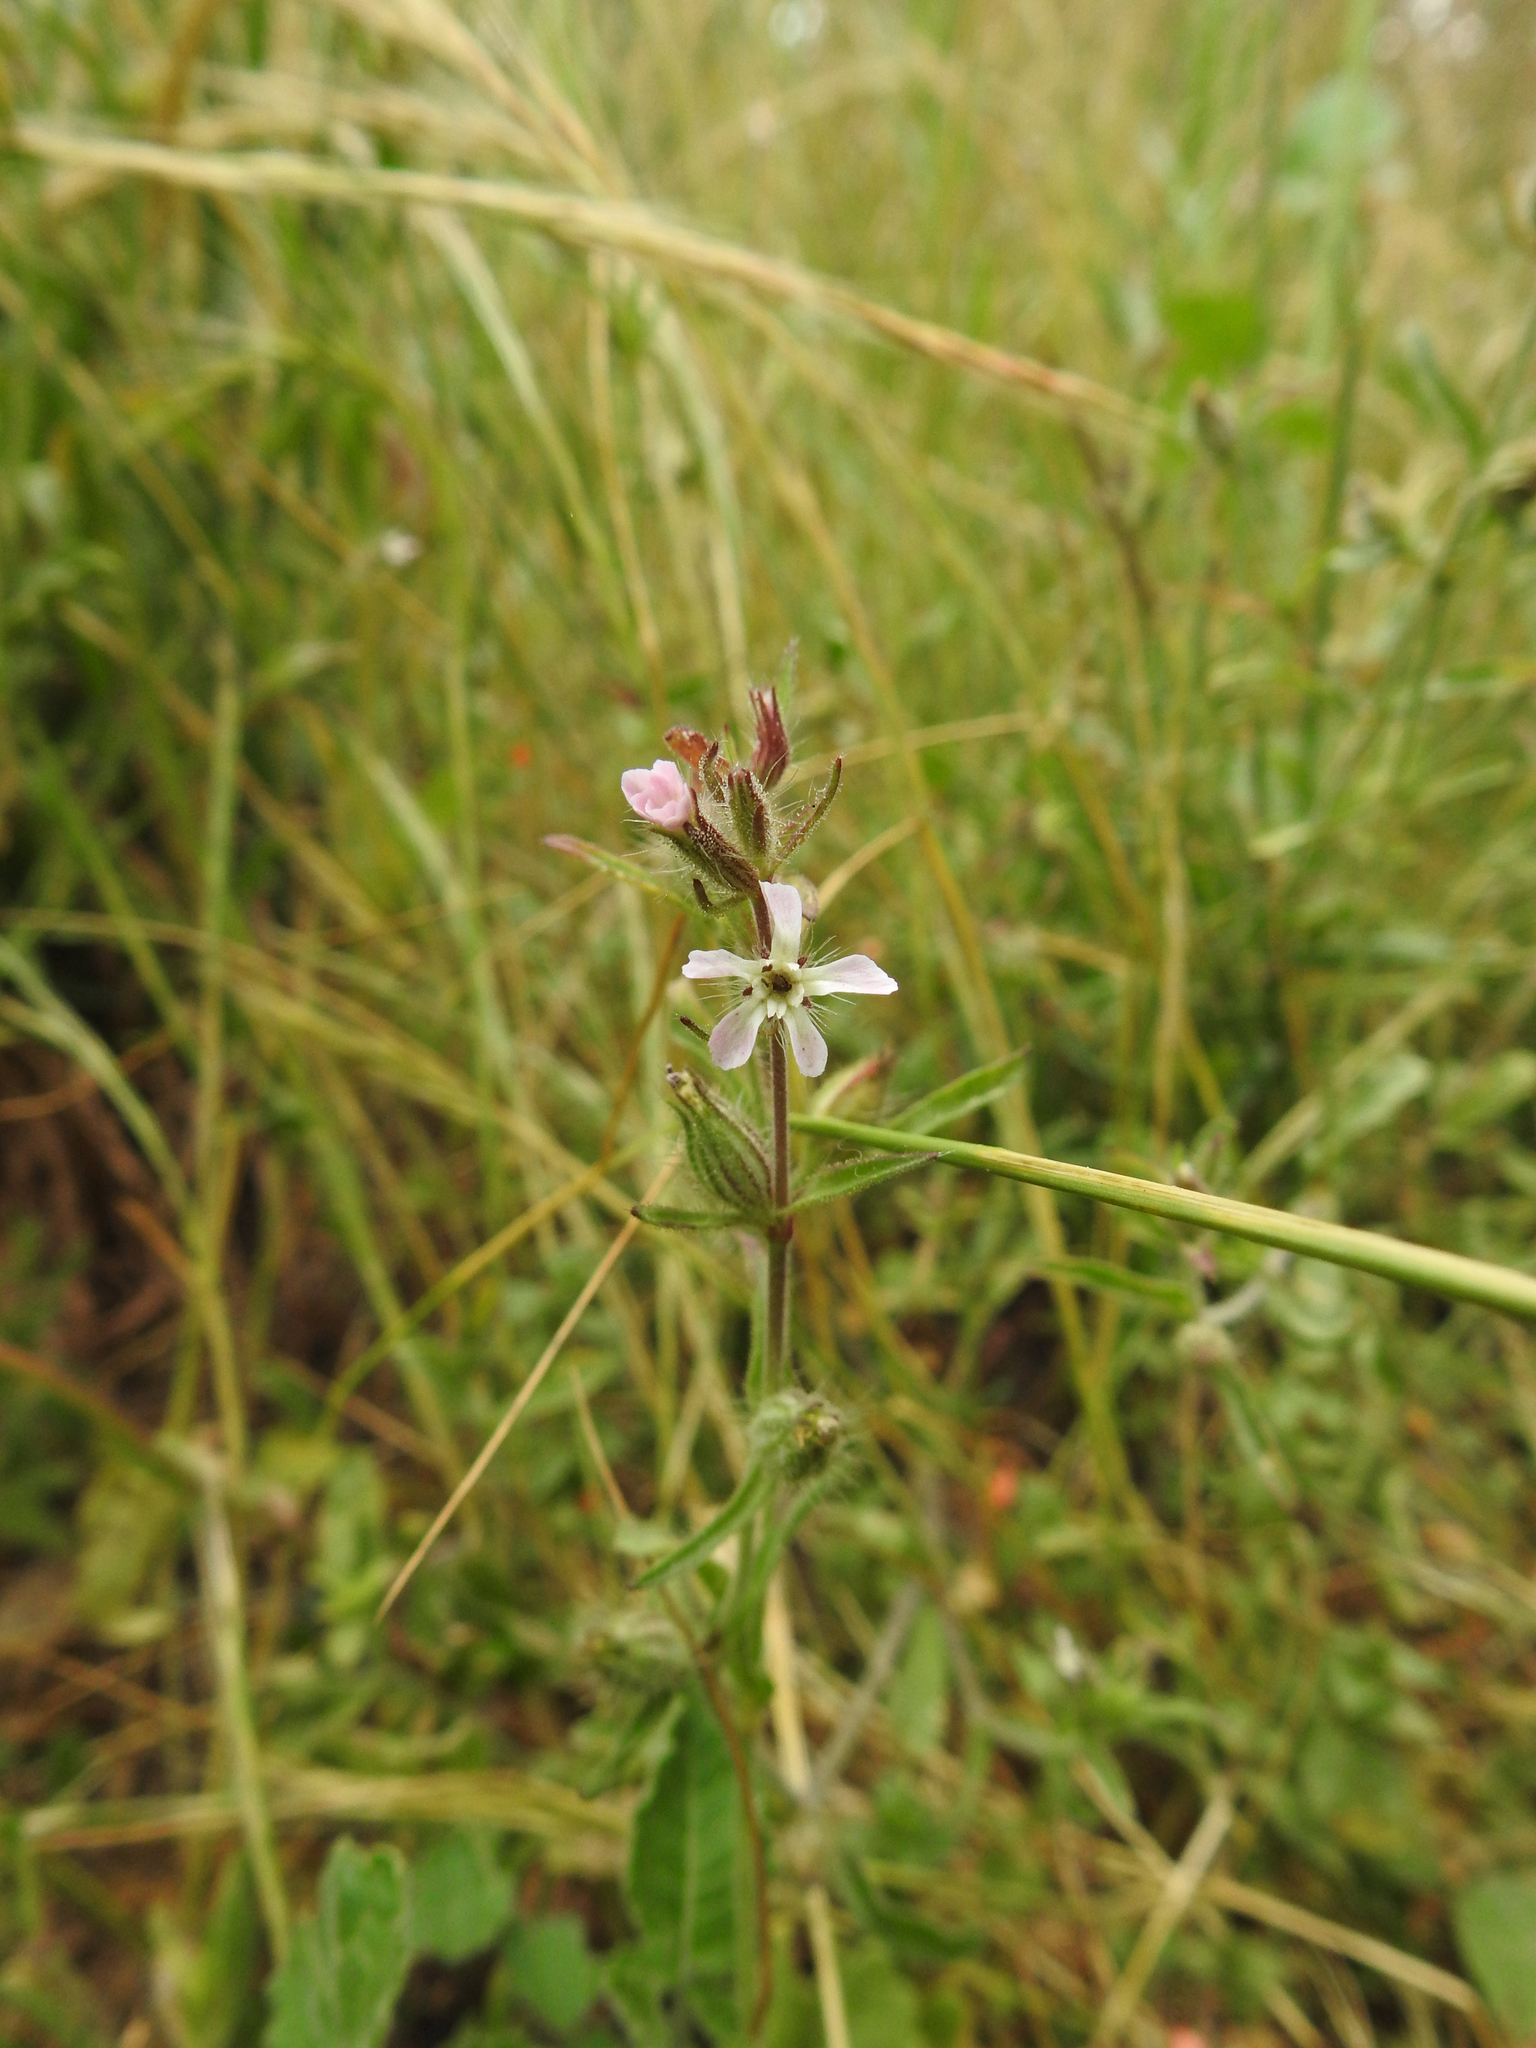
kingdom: Plantae
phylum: Tracheophyta
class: Magnoliopsida
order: Caryophyllales
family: Caryophyllaceae
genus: Silene
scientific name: Silene gallica
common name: Small-flowered catchfly
